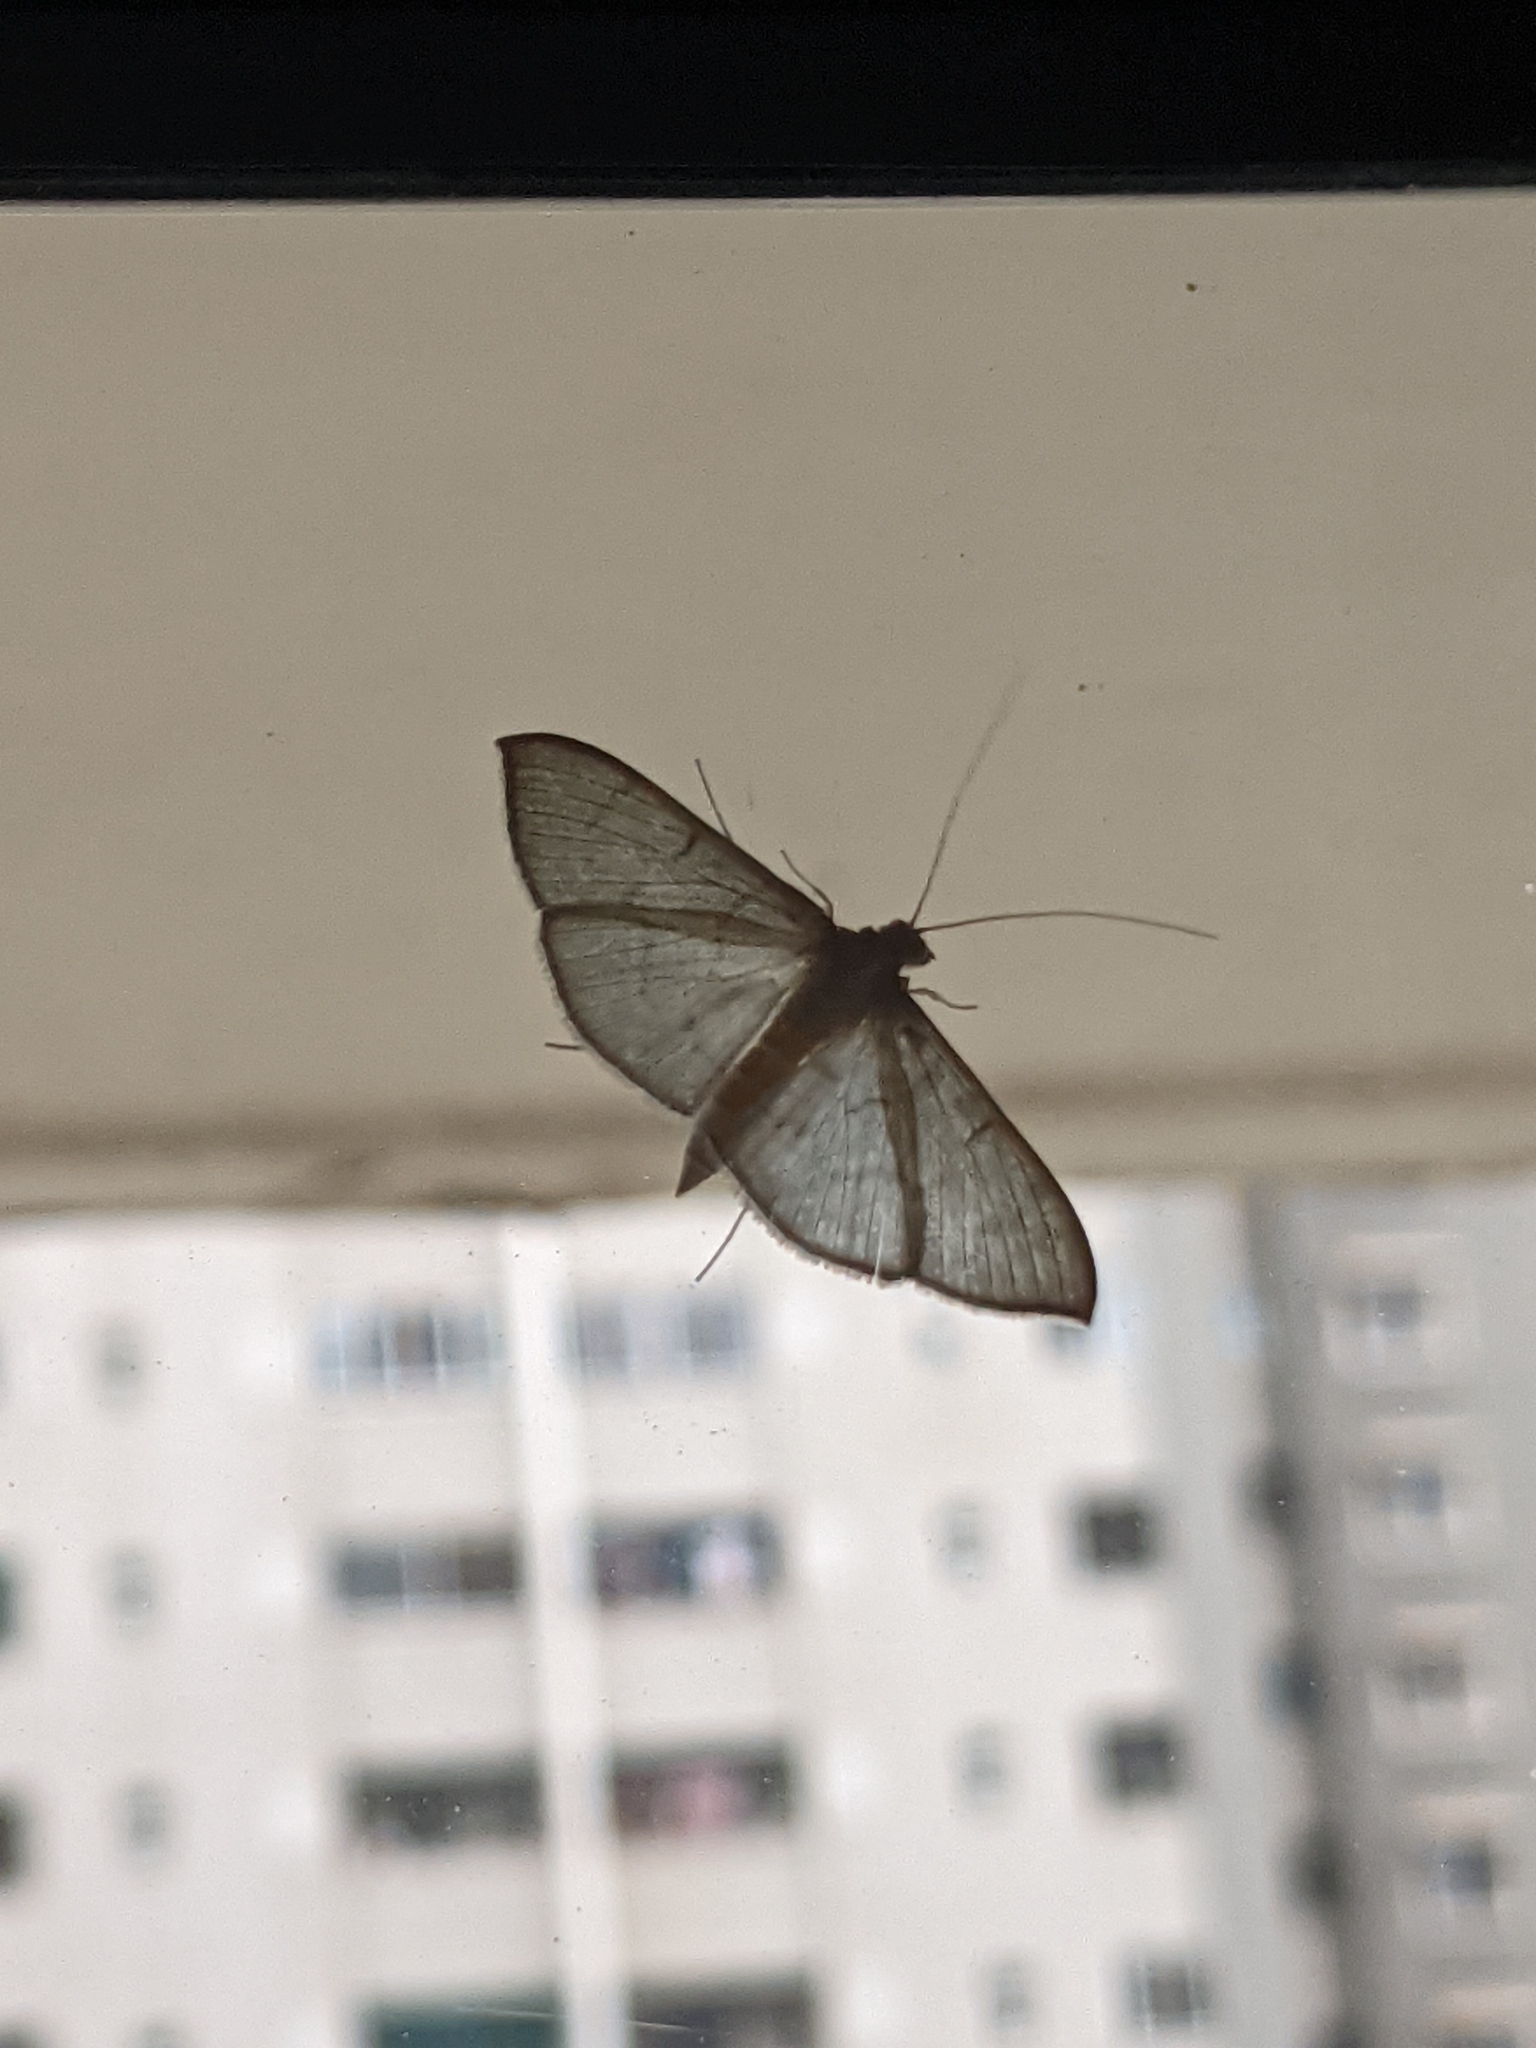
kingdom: Animalia
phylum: Arthropoda
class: Insecta
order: Lepidoptera
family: Crambidae
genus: Lamprophaia
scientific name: Lamprophaia ablactalis
